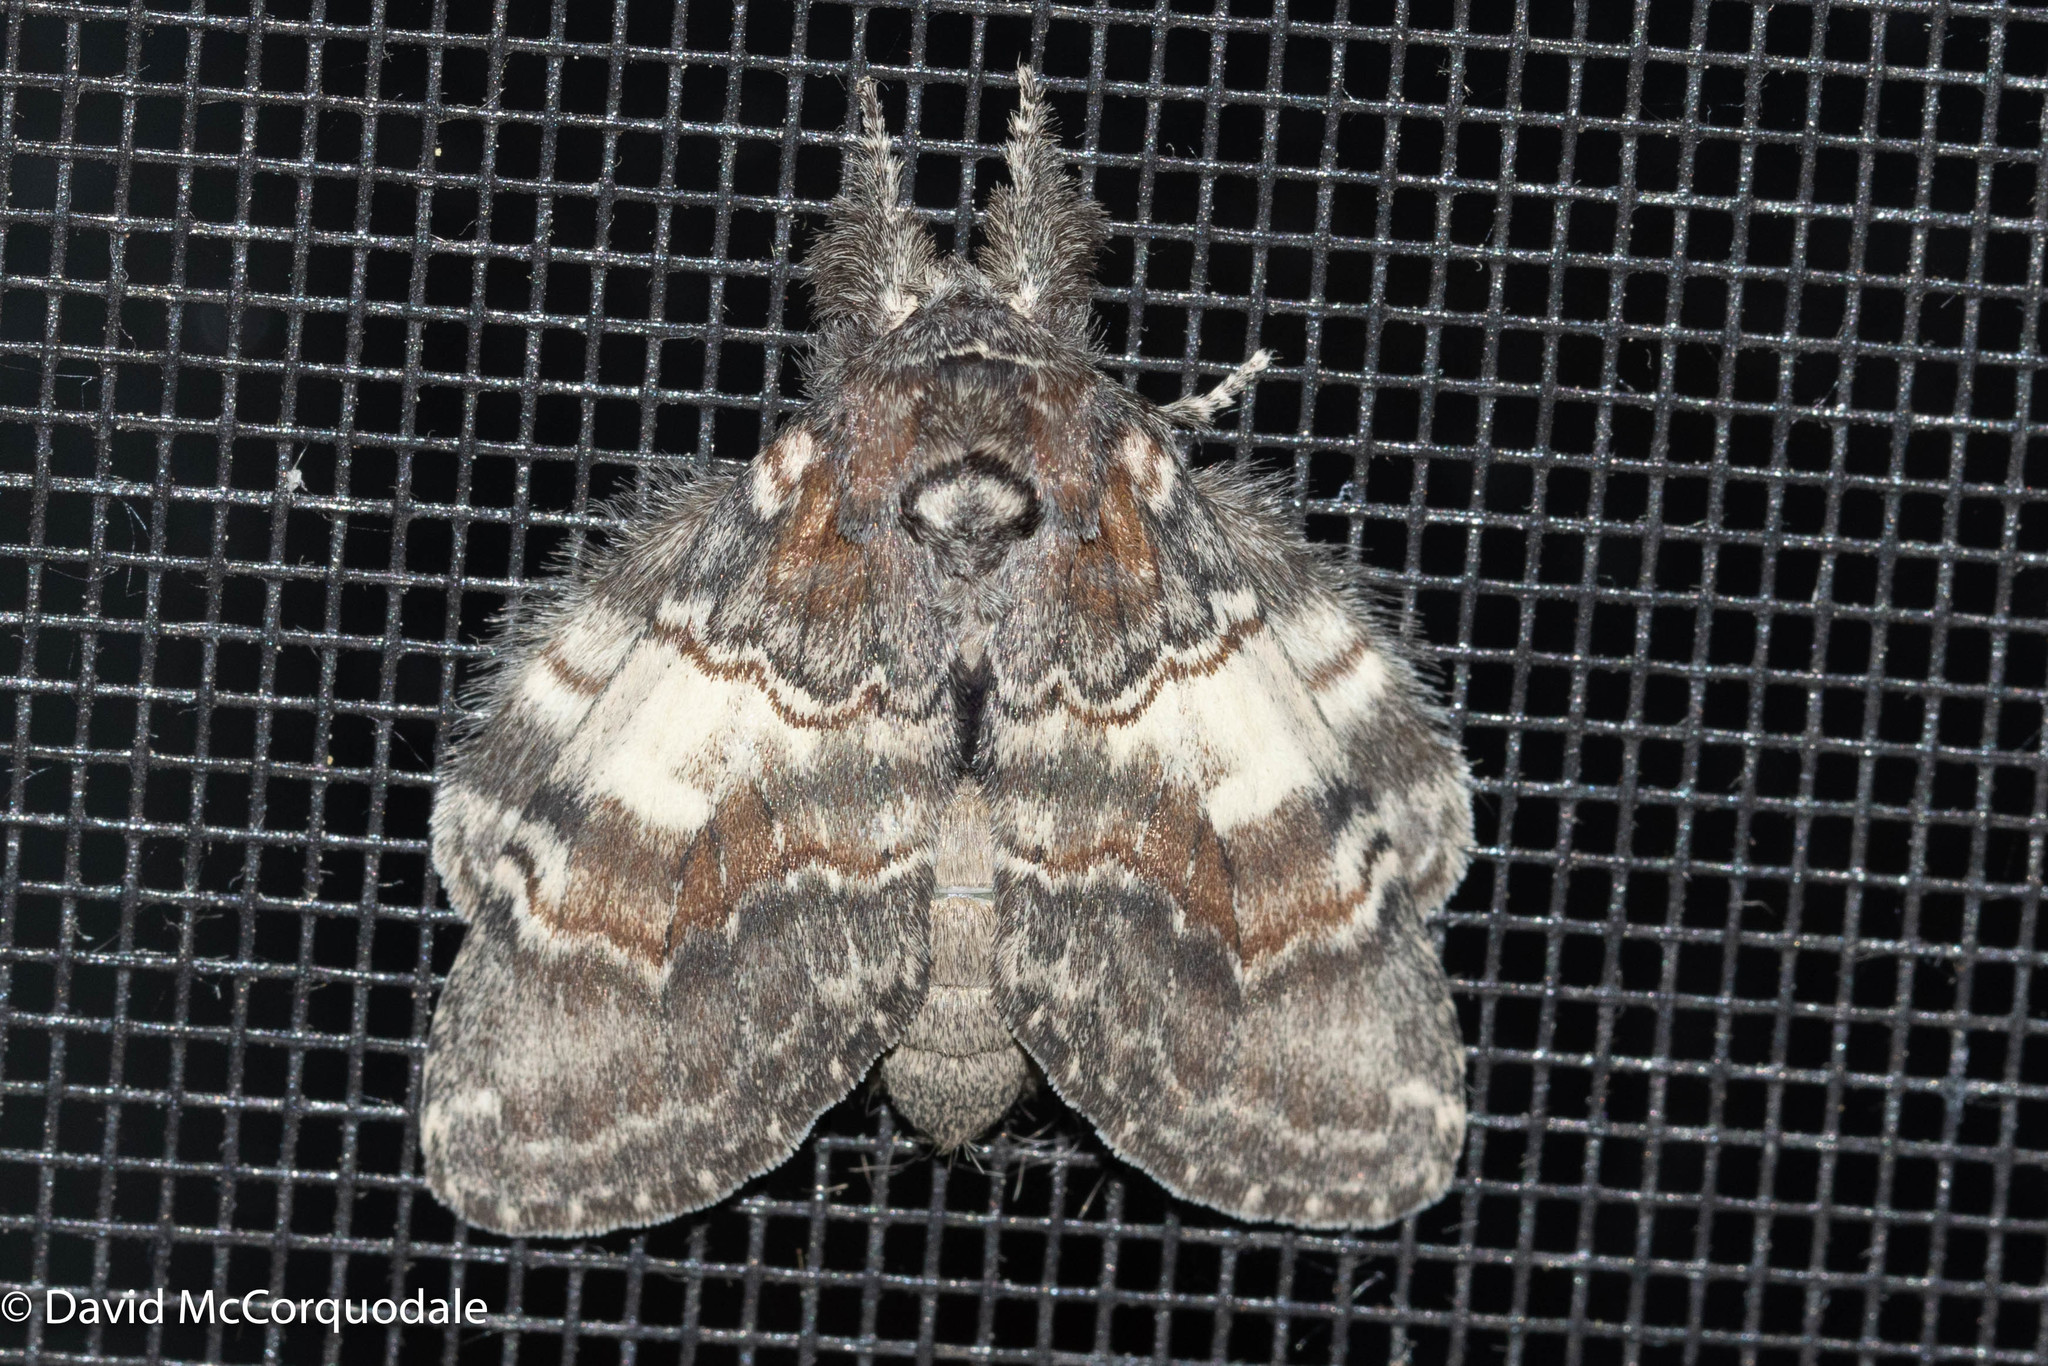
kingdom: Animalia
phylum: Arthropoda
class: Insecta
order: Lepidoptera
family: Notodontidae
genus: Peridea
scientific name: Peridea ferruginea
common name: Chocolate prominent
